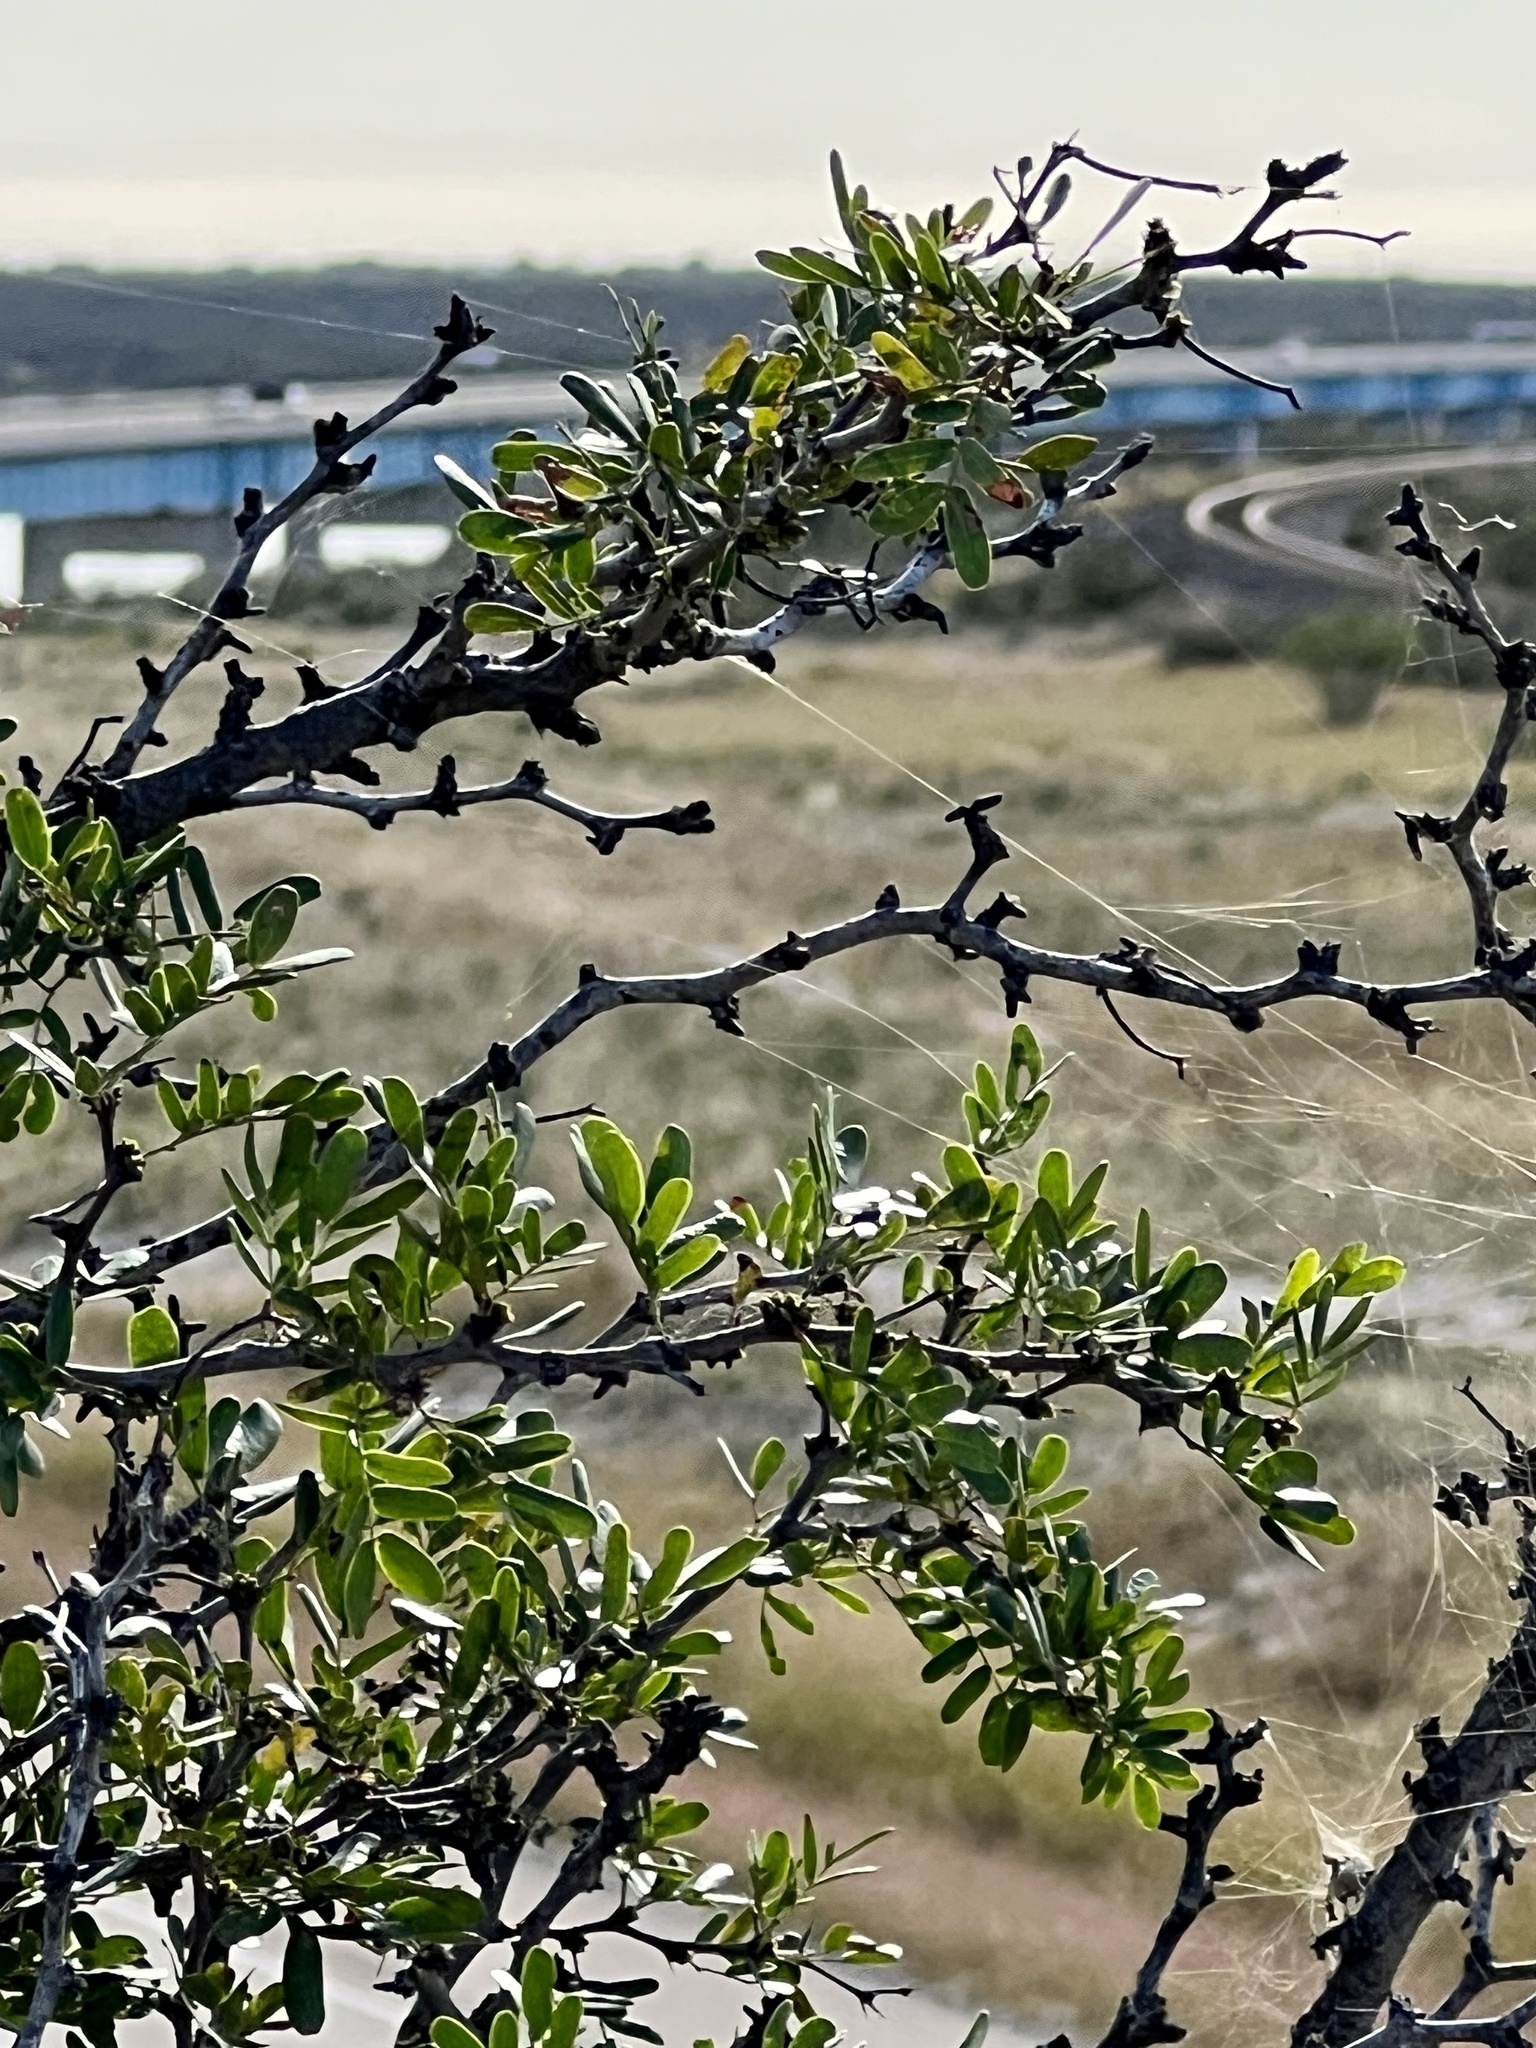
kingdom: Plantae
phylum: Tracheophyta
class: Magnoliopsida
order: Fabales
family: Fabaceae
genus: Vachellia
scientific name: Vachellia rigidula
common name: Blackbrush
